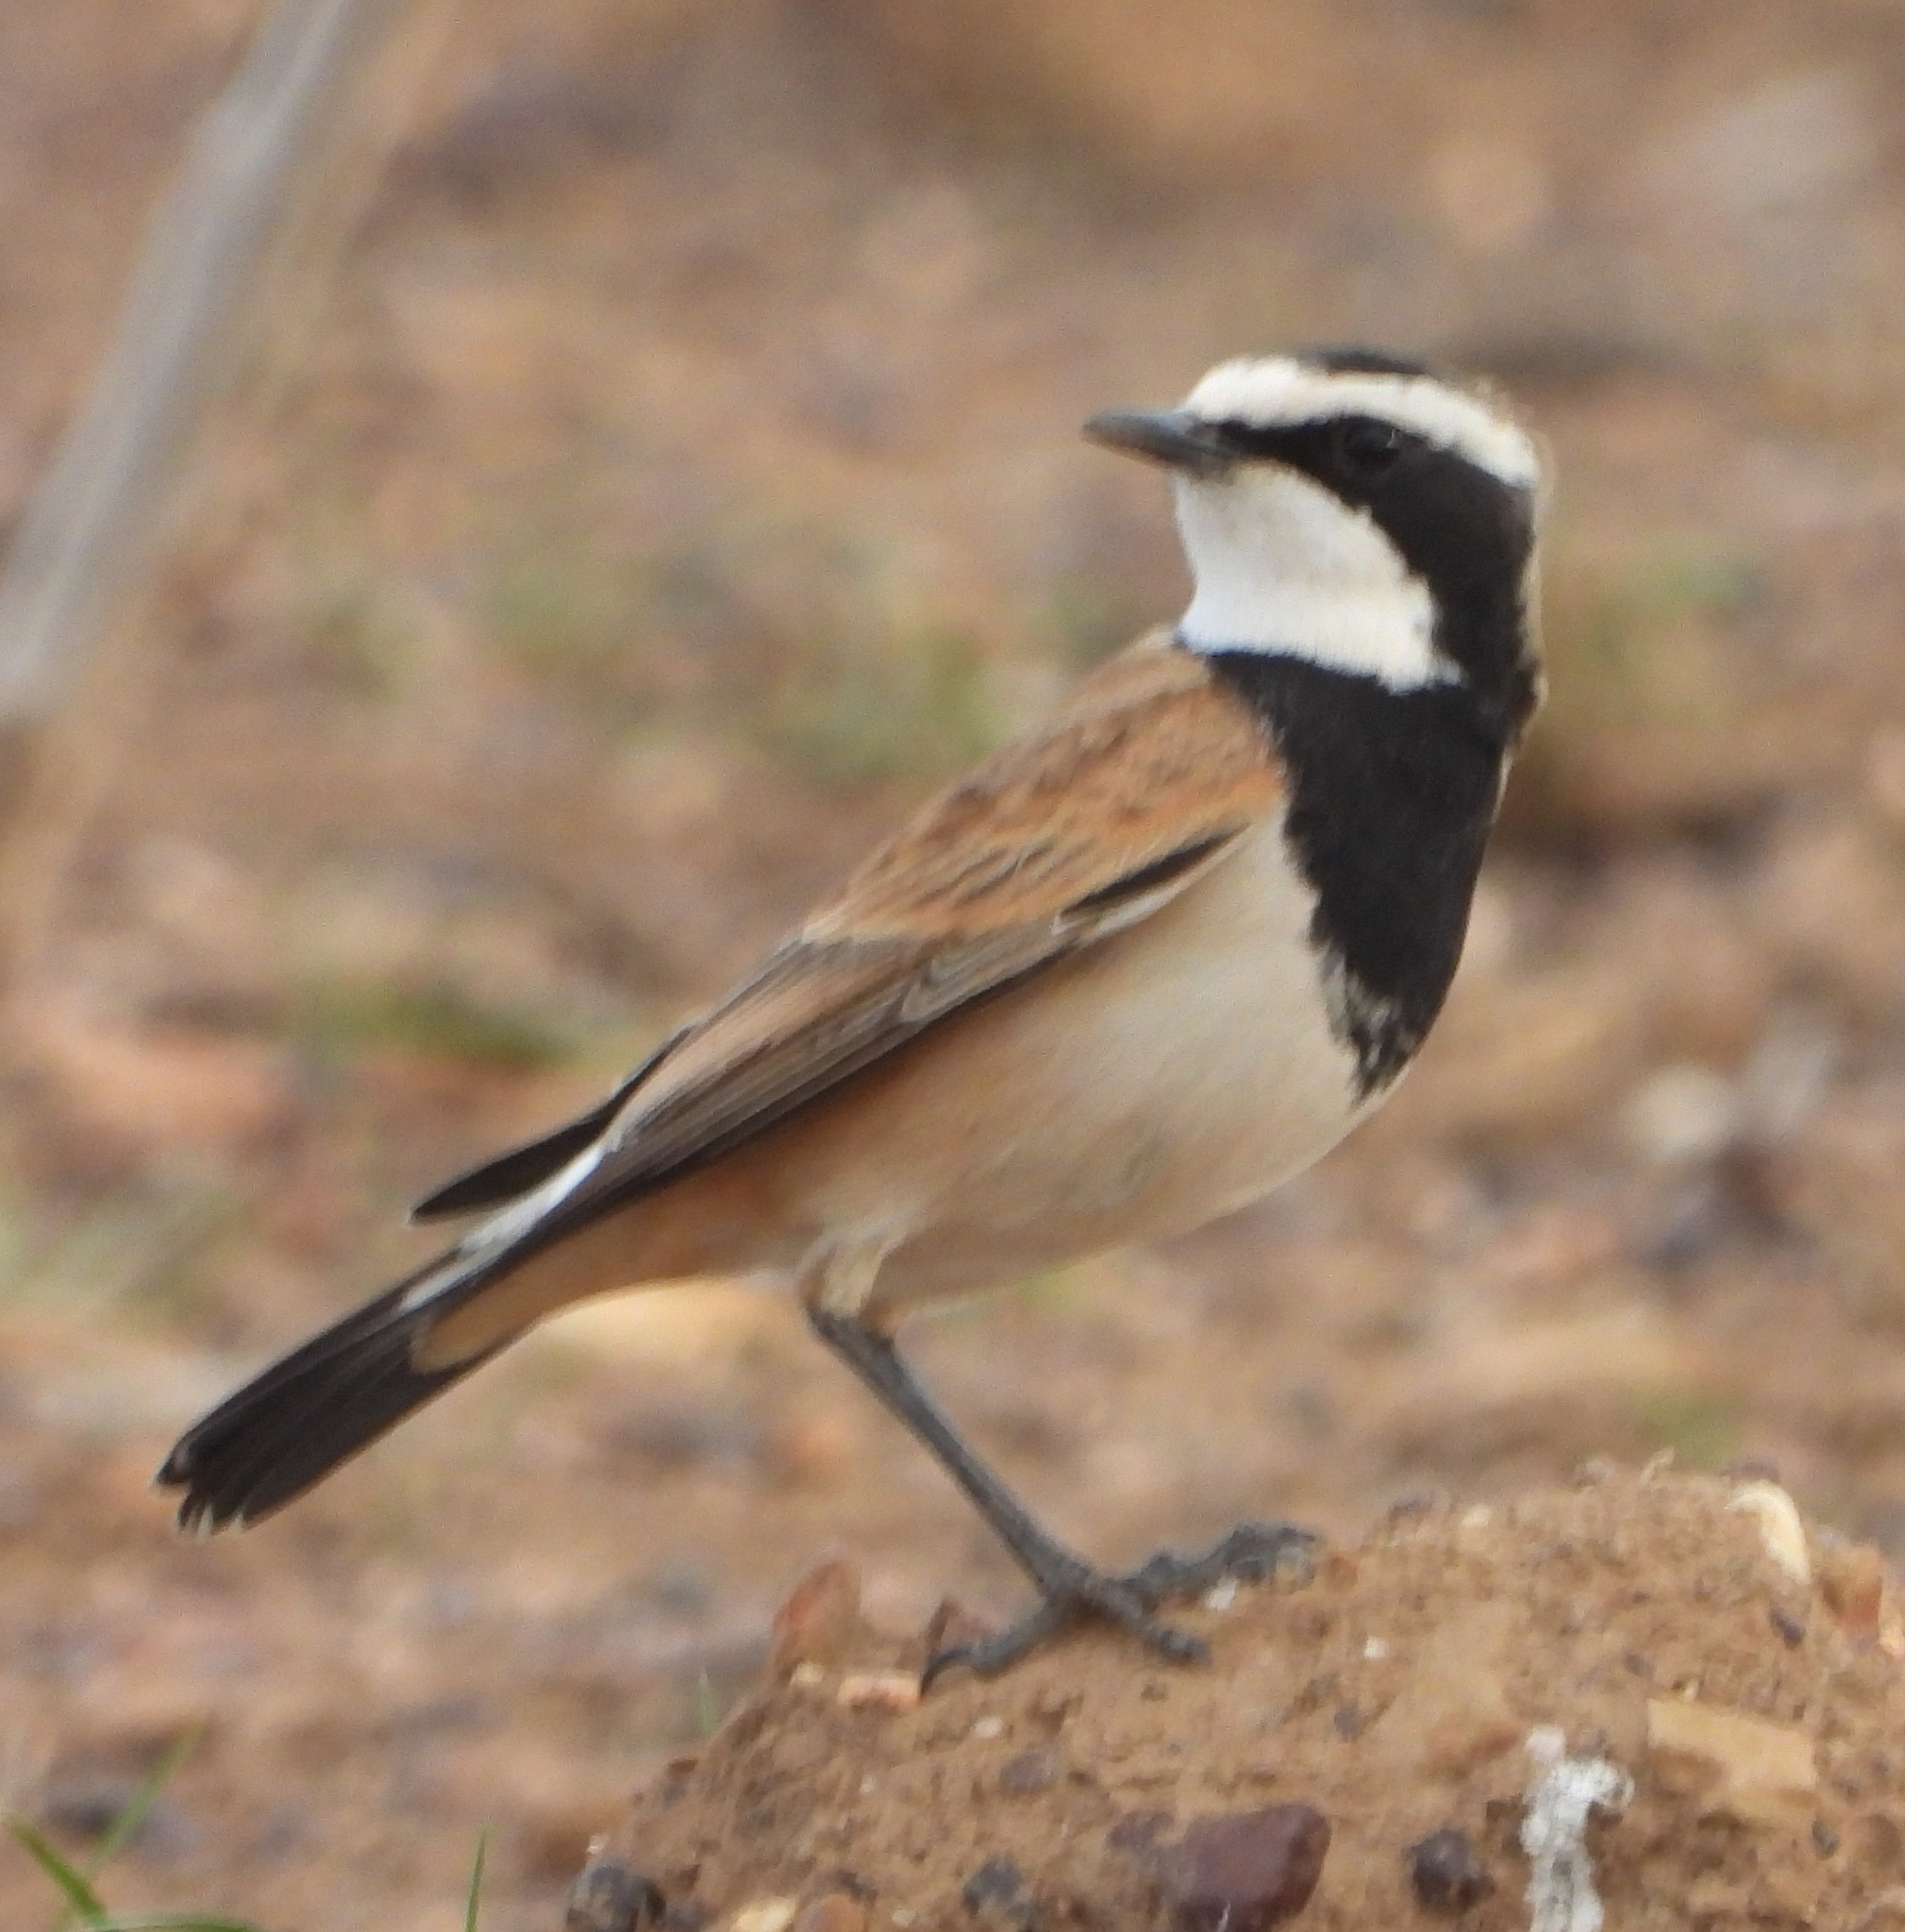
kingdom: Animalia
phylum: Chordata
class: Aves
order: Passeriformes
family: Muscicapidae
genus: Oenanthe
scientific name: Oenanthe pileata
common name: Capped wheatear
